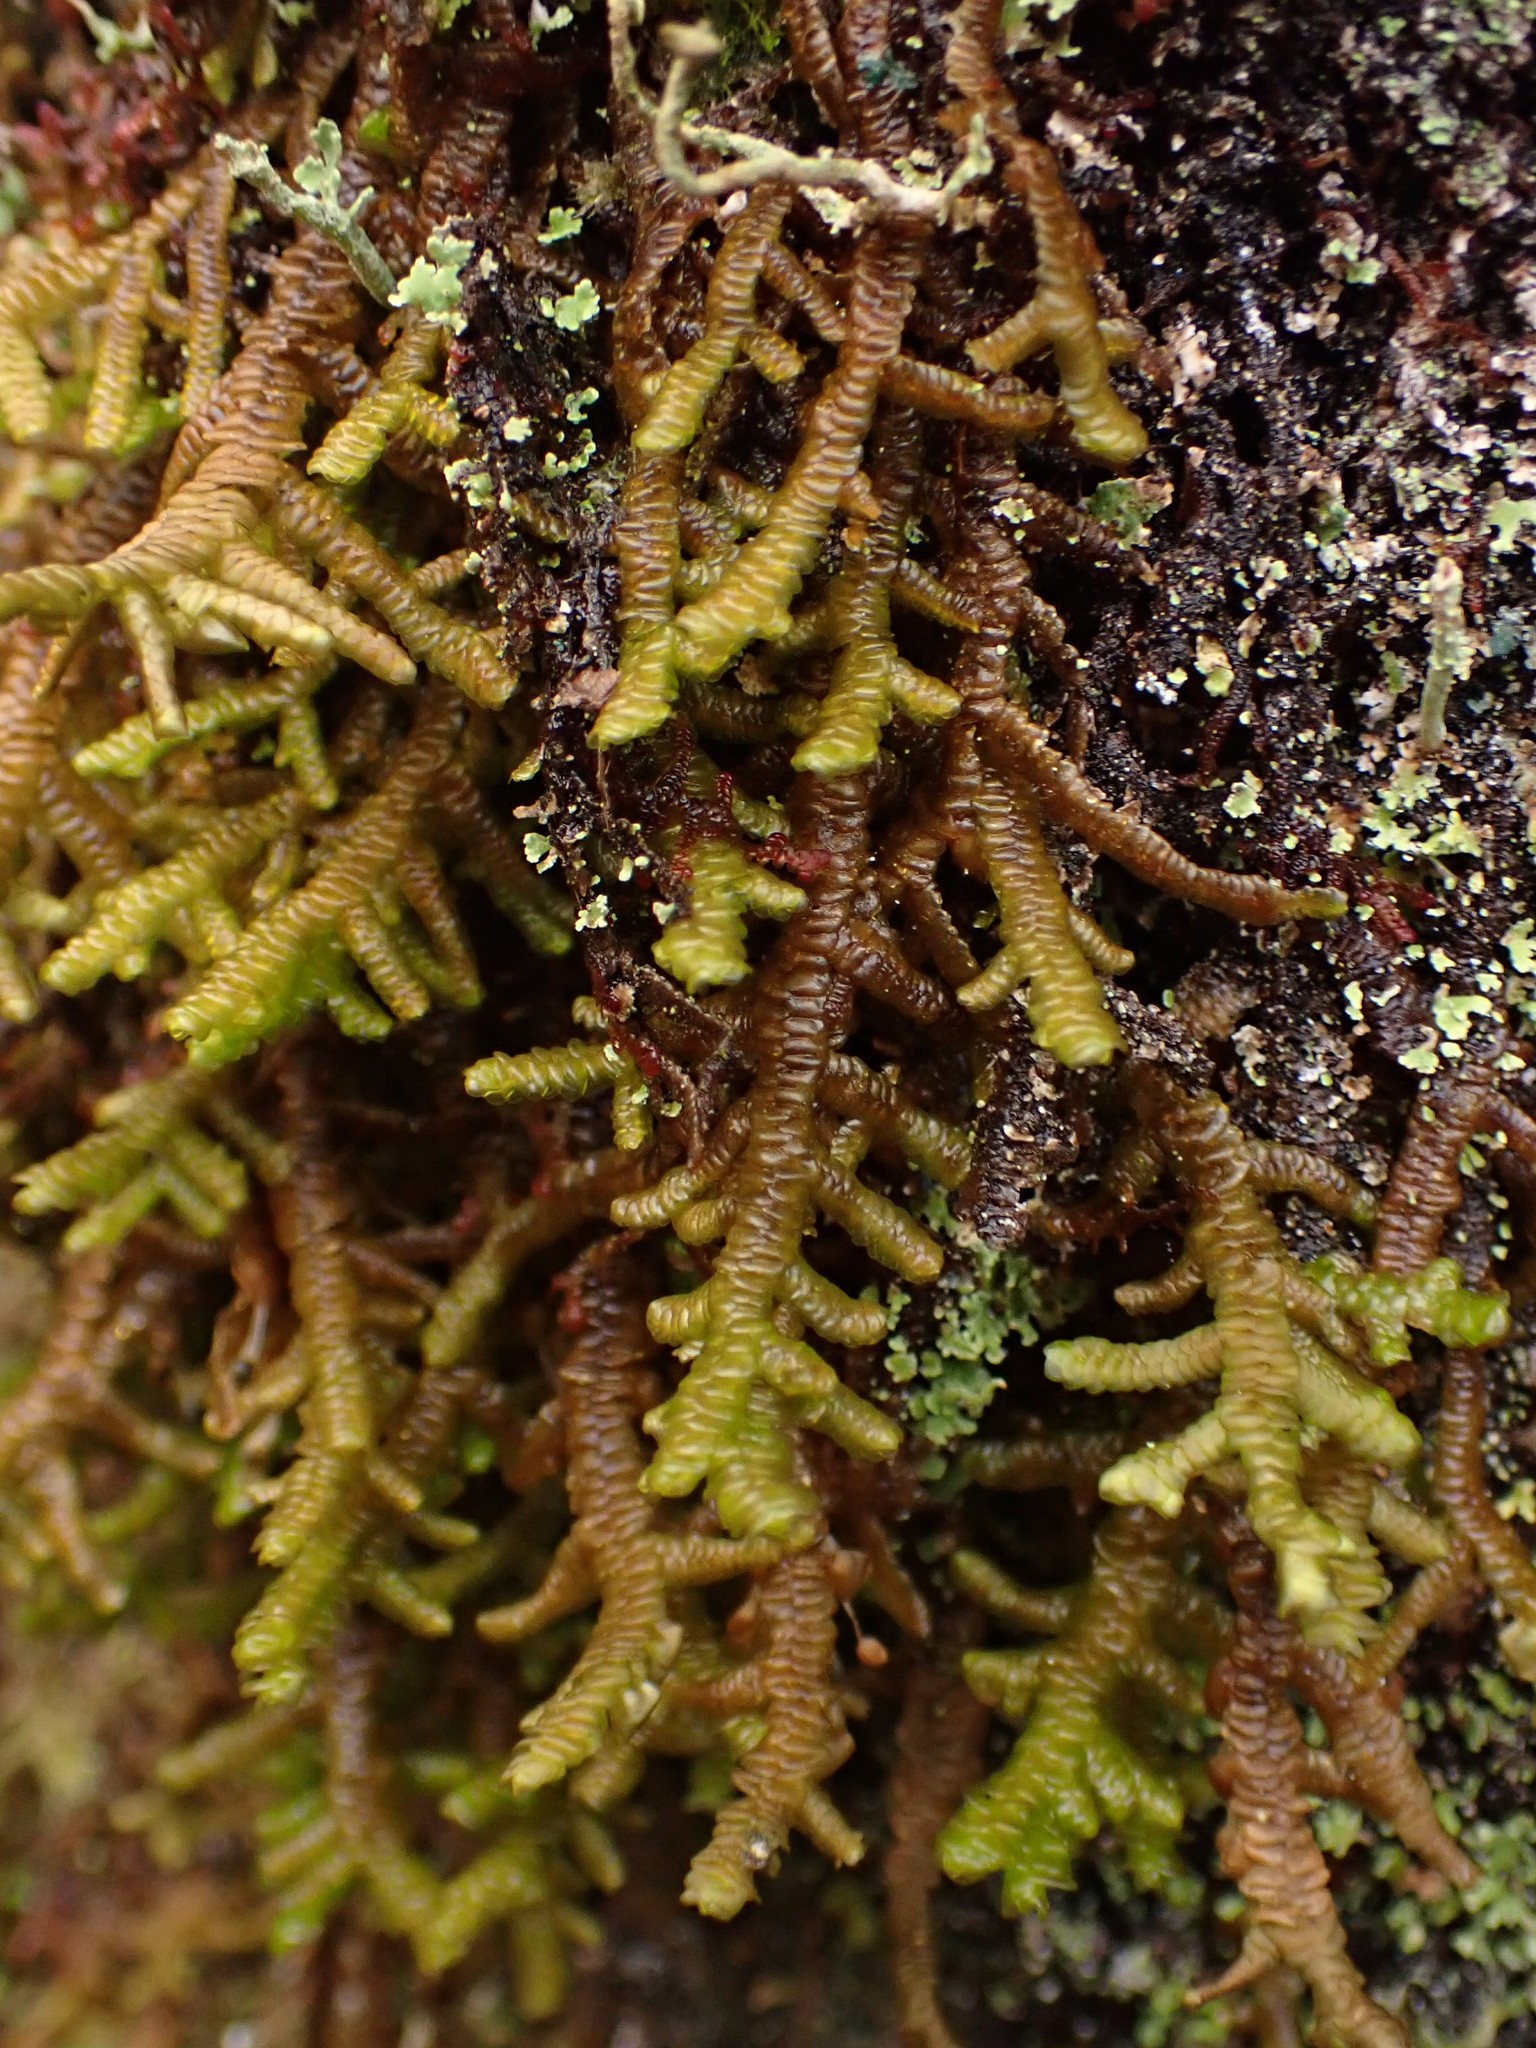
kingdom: Plantae
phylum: Marchantiophyta
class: Jungermanniopsida
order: Porellales
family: Porellaceae
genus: Porella
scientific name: Porella navicularis
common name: Tree ruffle liverwort
